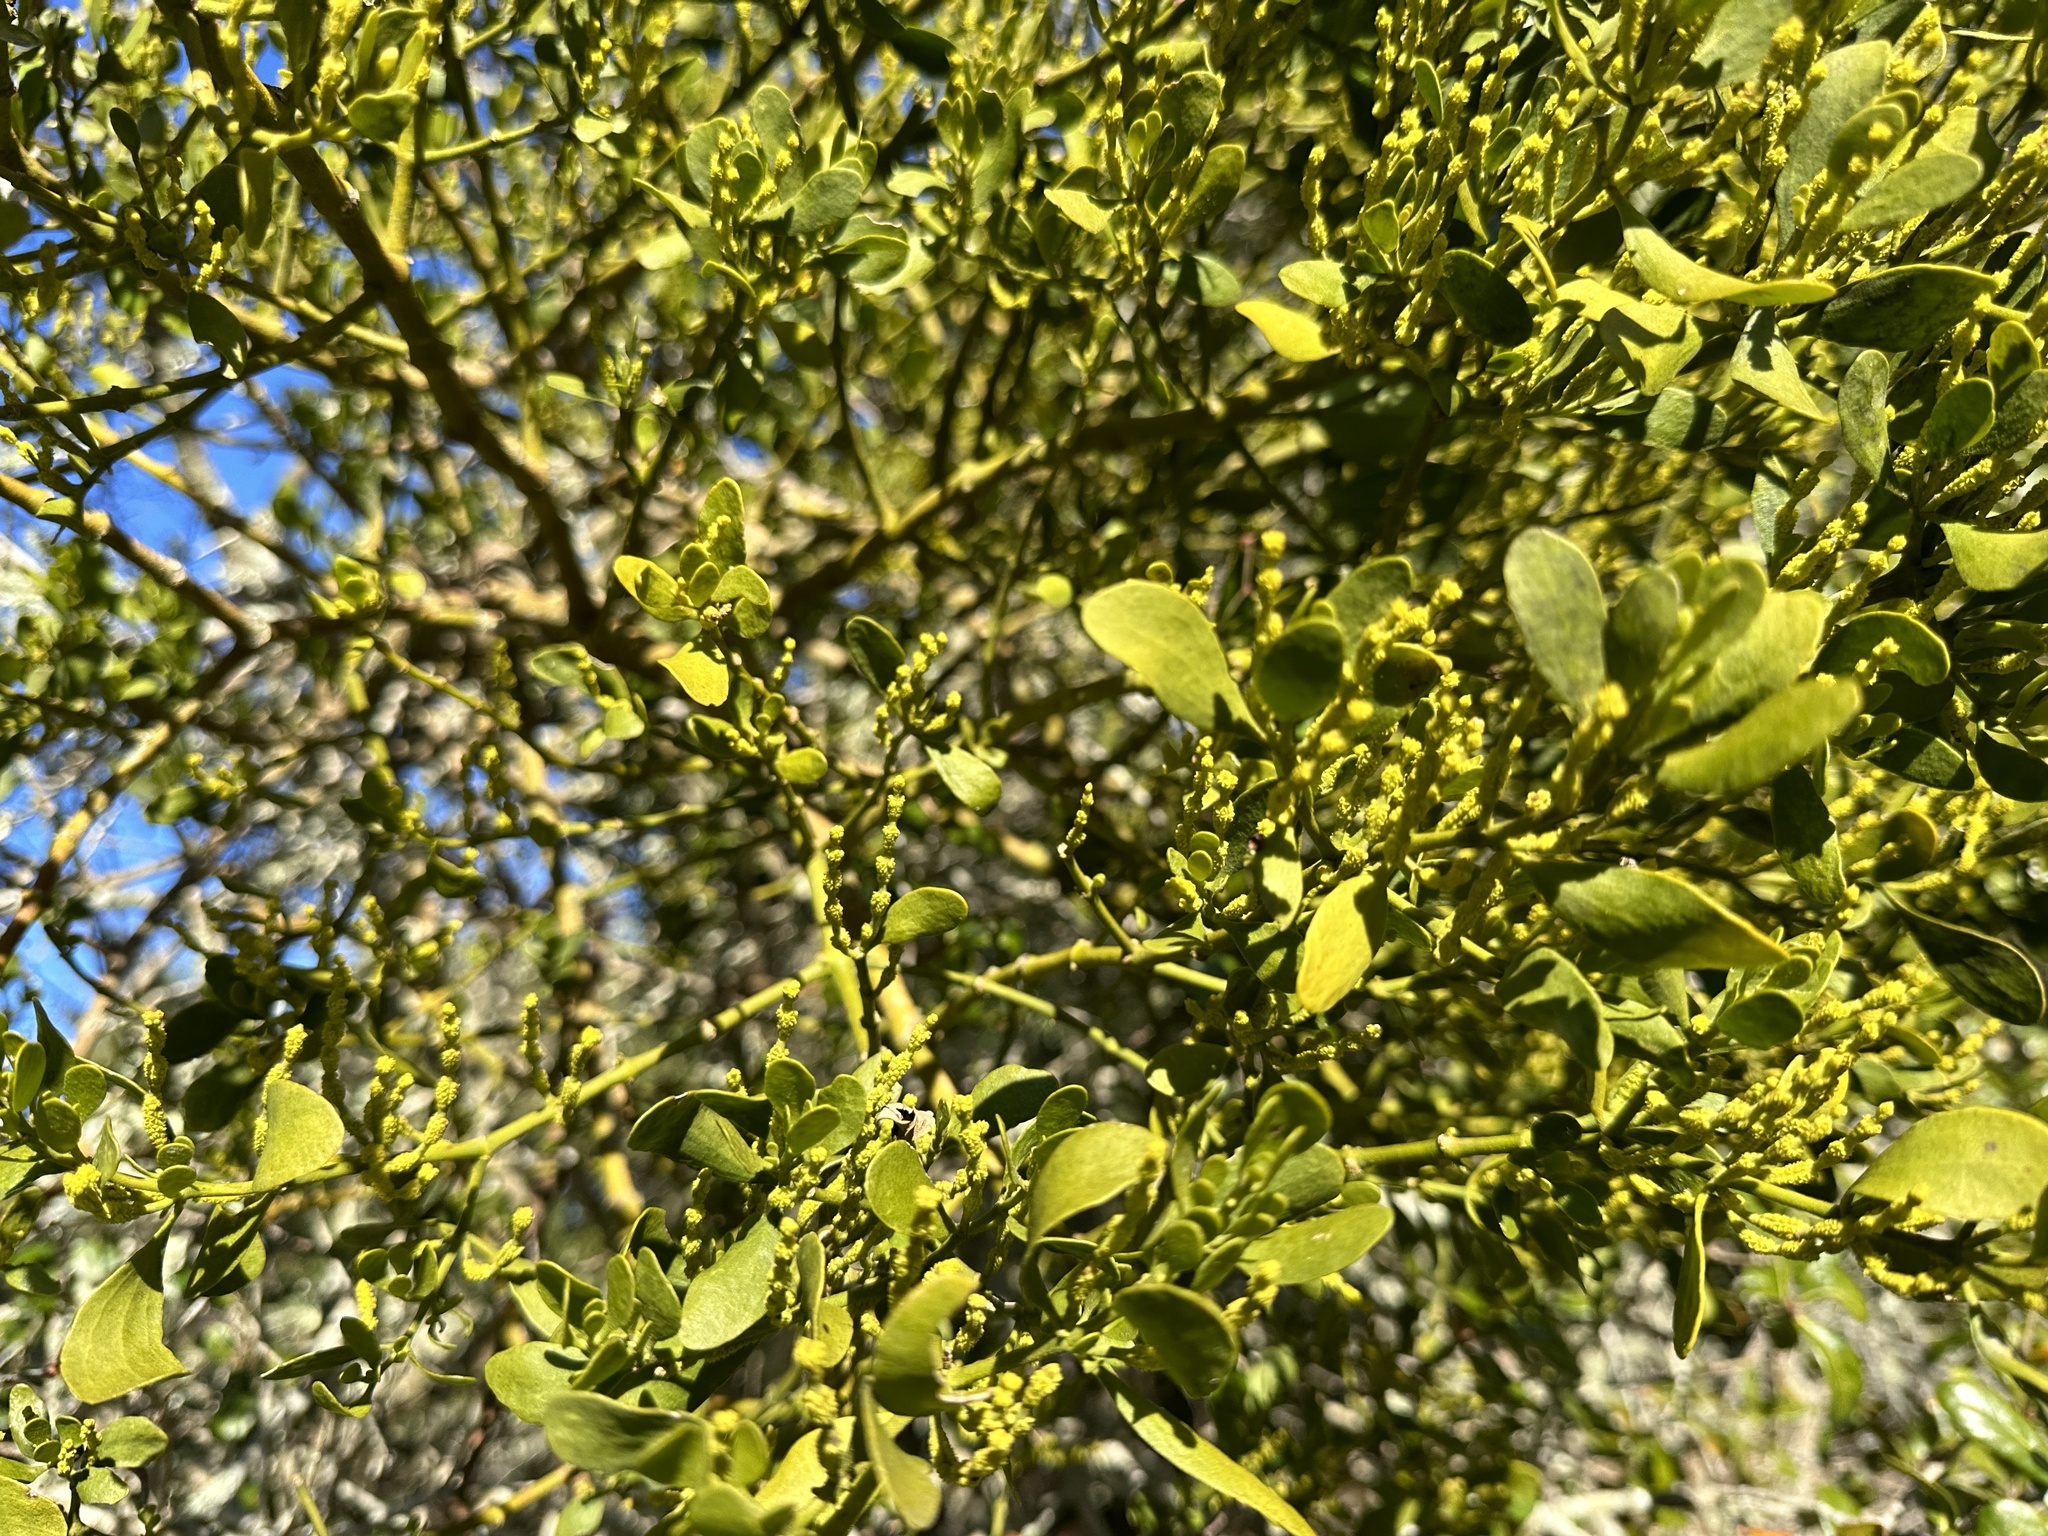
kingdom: Plantae
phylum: Tracheophyta
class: Magnoliopsida
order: Santalales
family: Viscaceae
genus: Phoradendron
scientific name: Phoradendron leucarpum
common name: Pacific mistletoe
